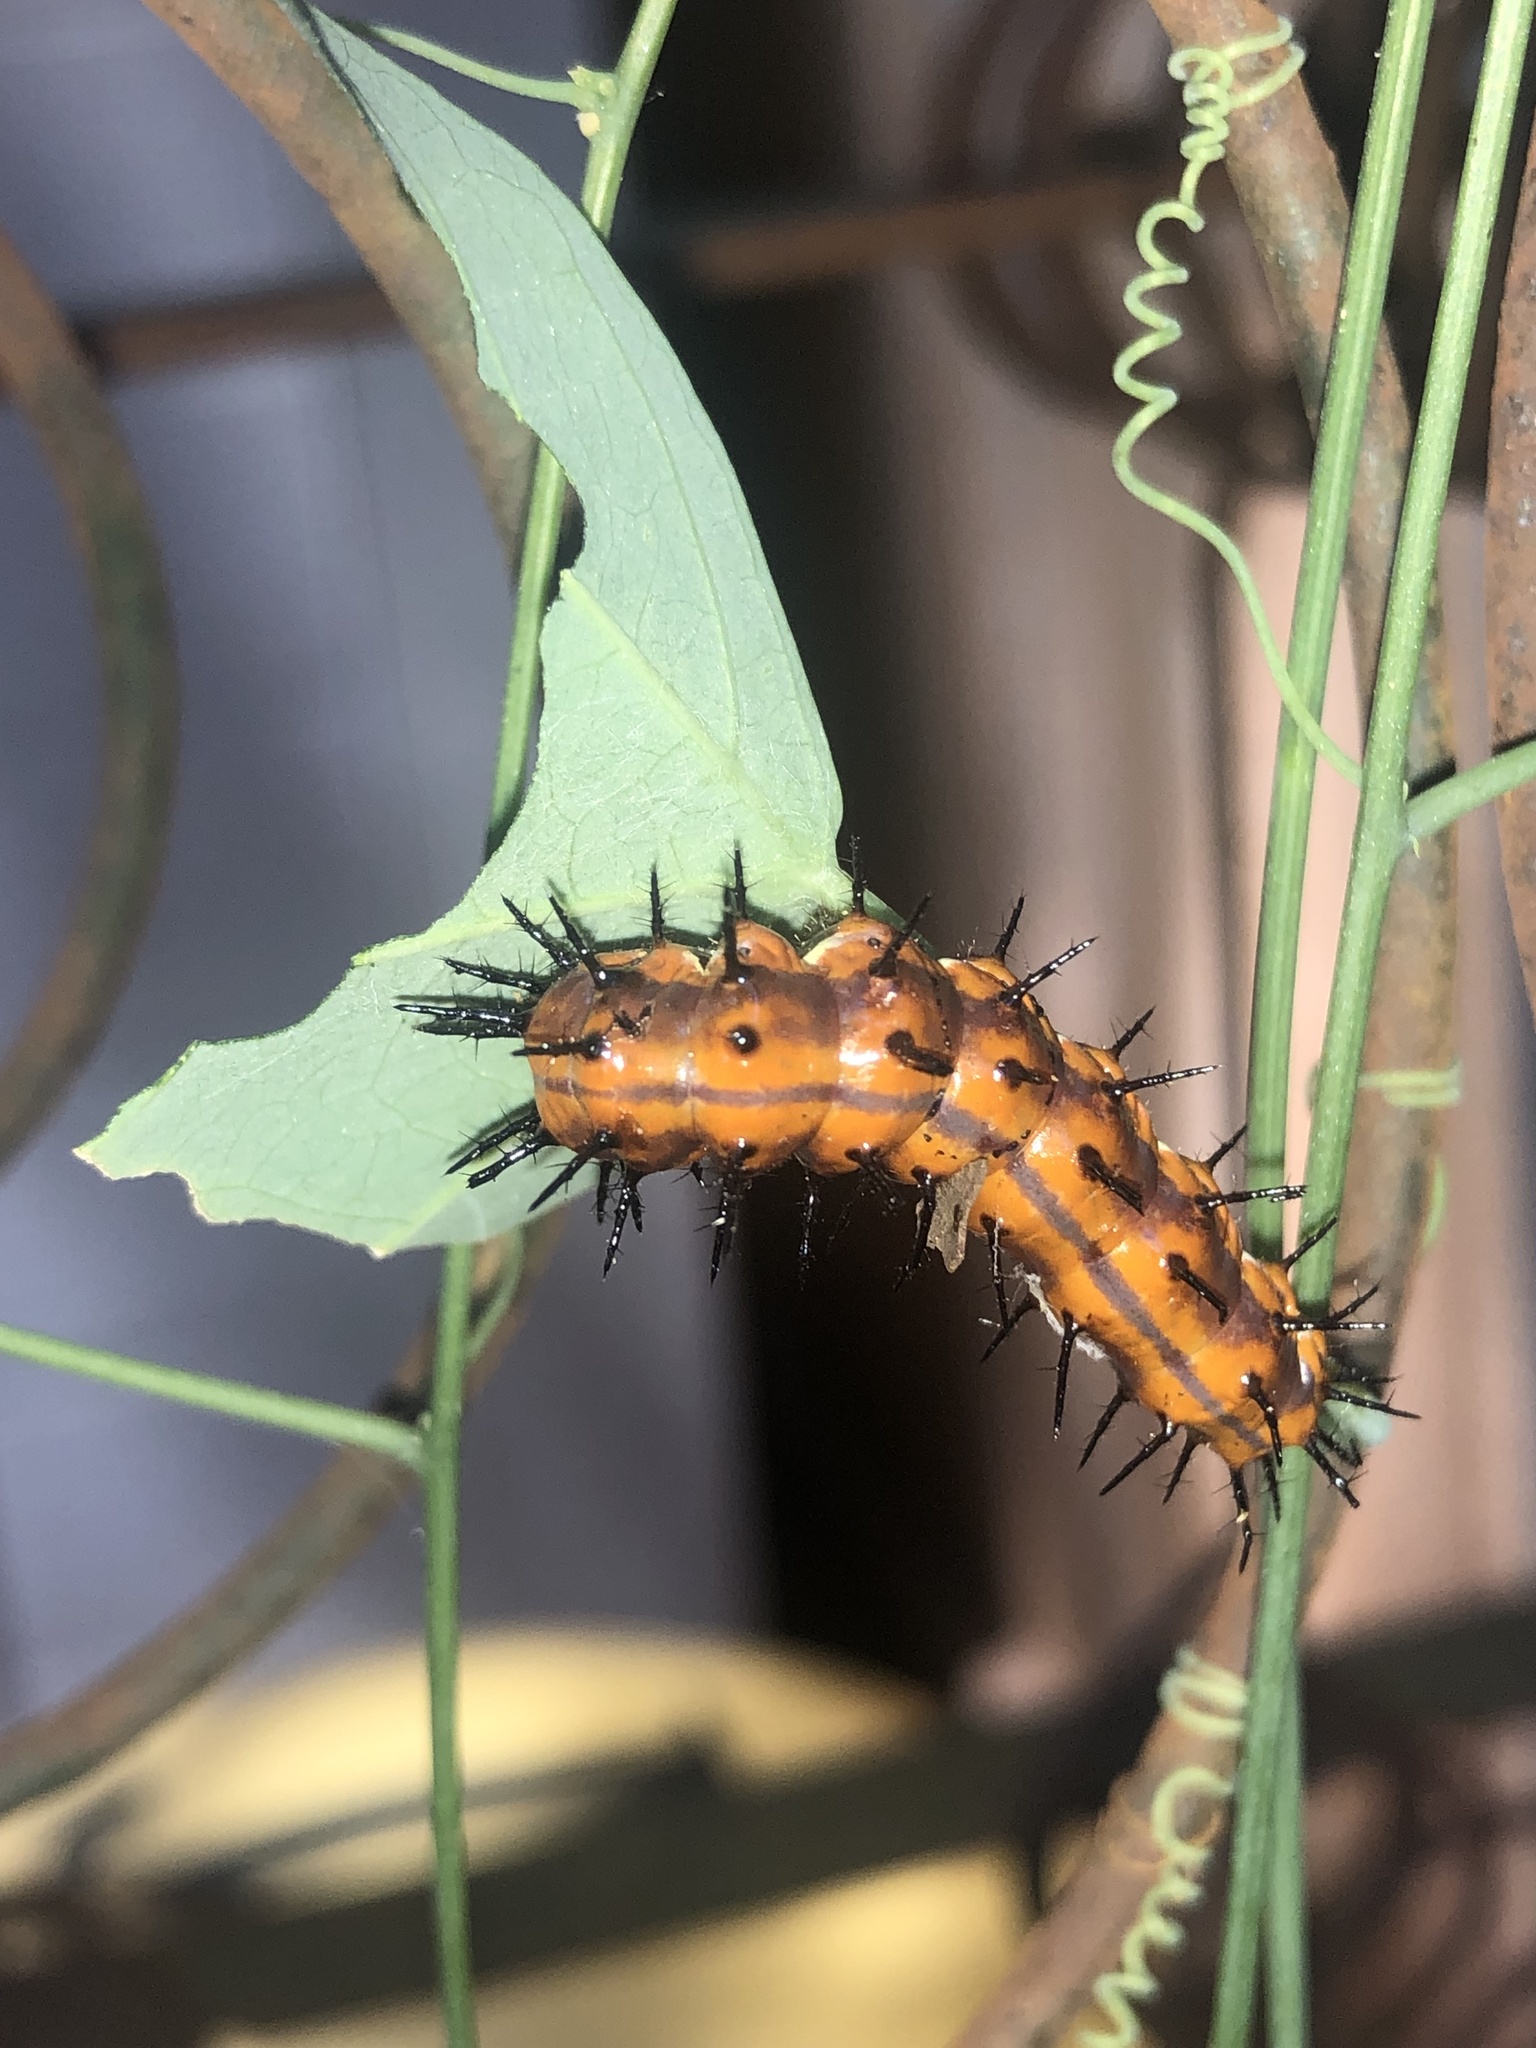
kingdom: Animalia
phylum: Arthropoda
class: Insecta
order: Lepidoptera
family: Nymphalidae
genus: Dione
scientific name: Dione vanillae
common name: Gulf fritillary
